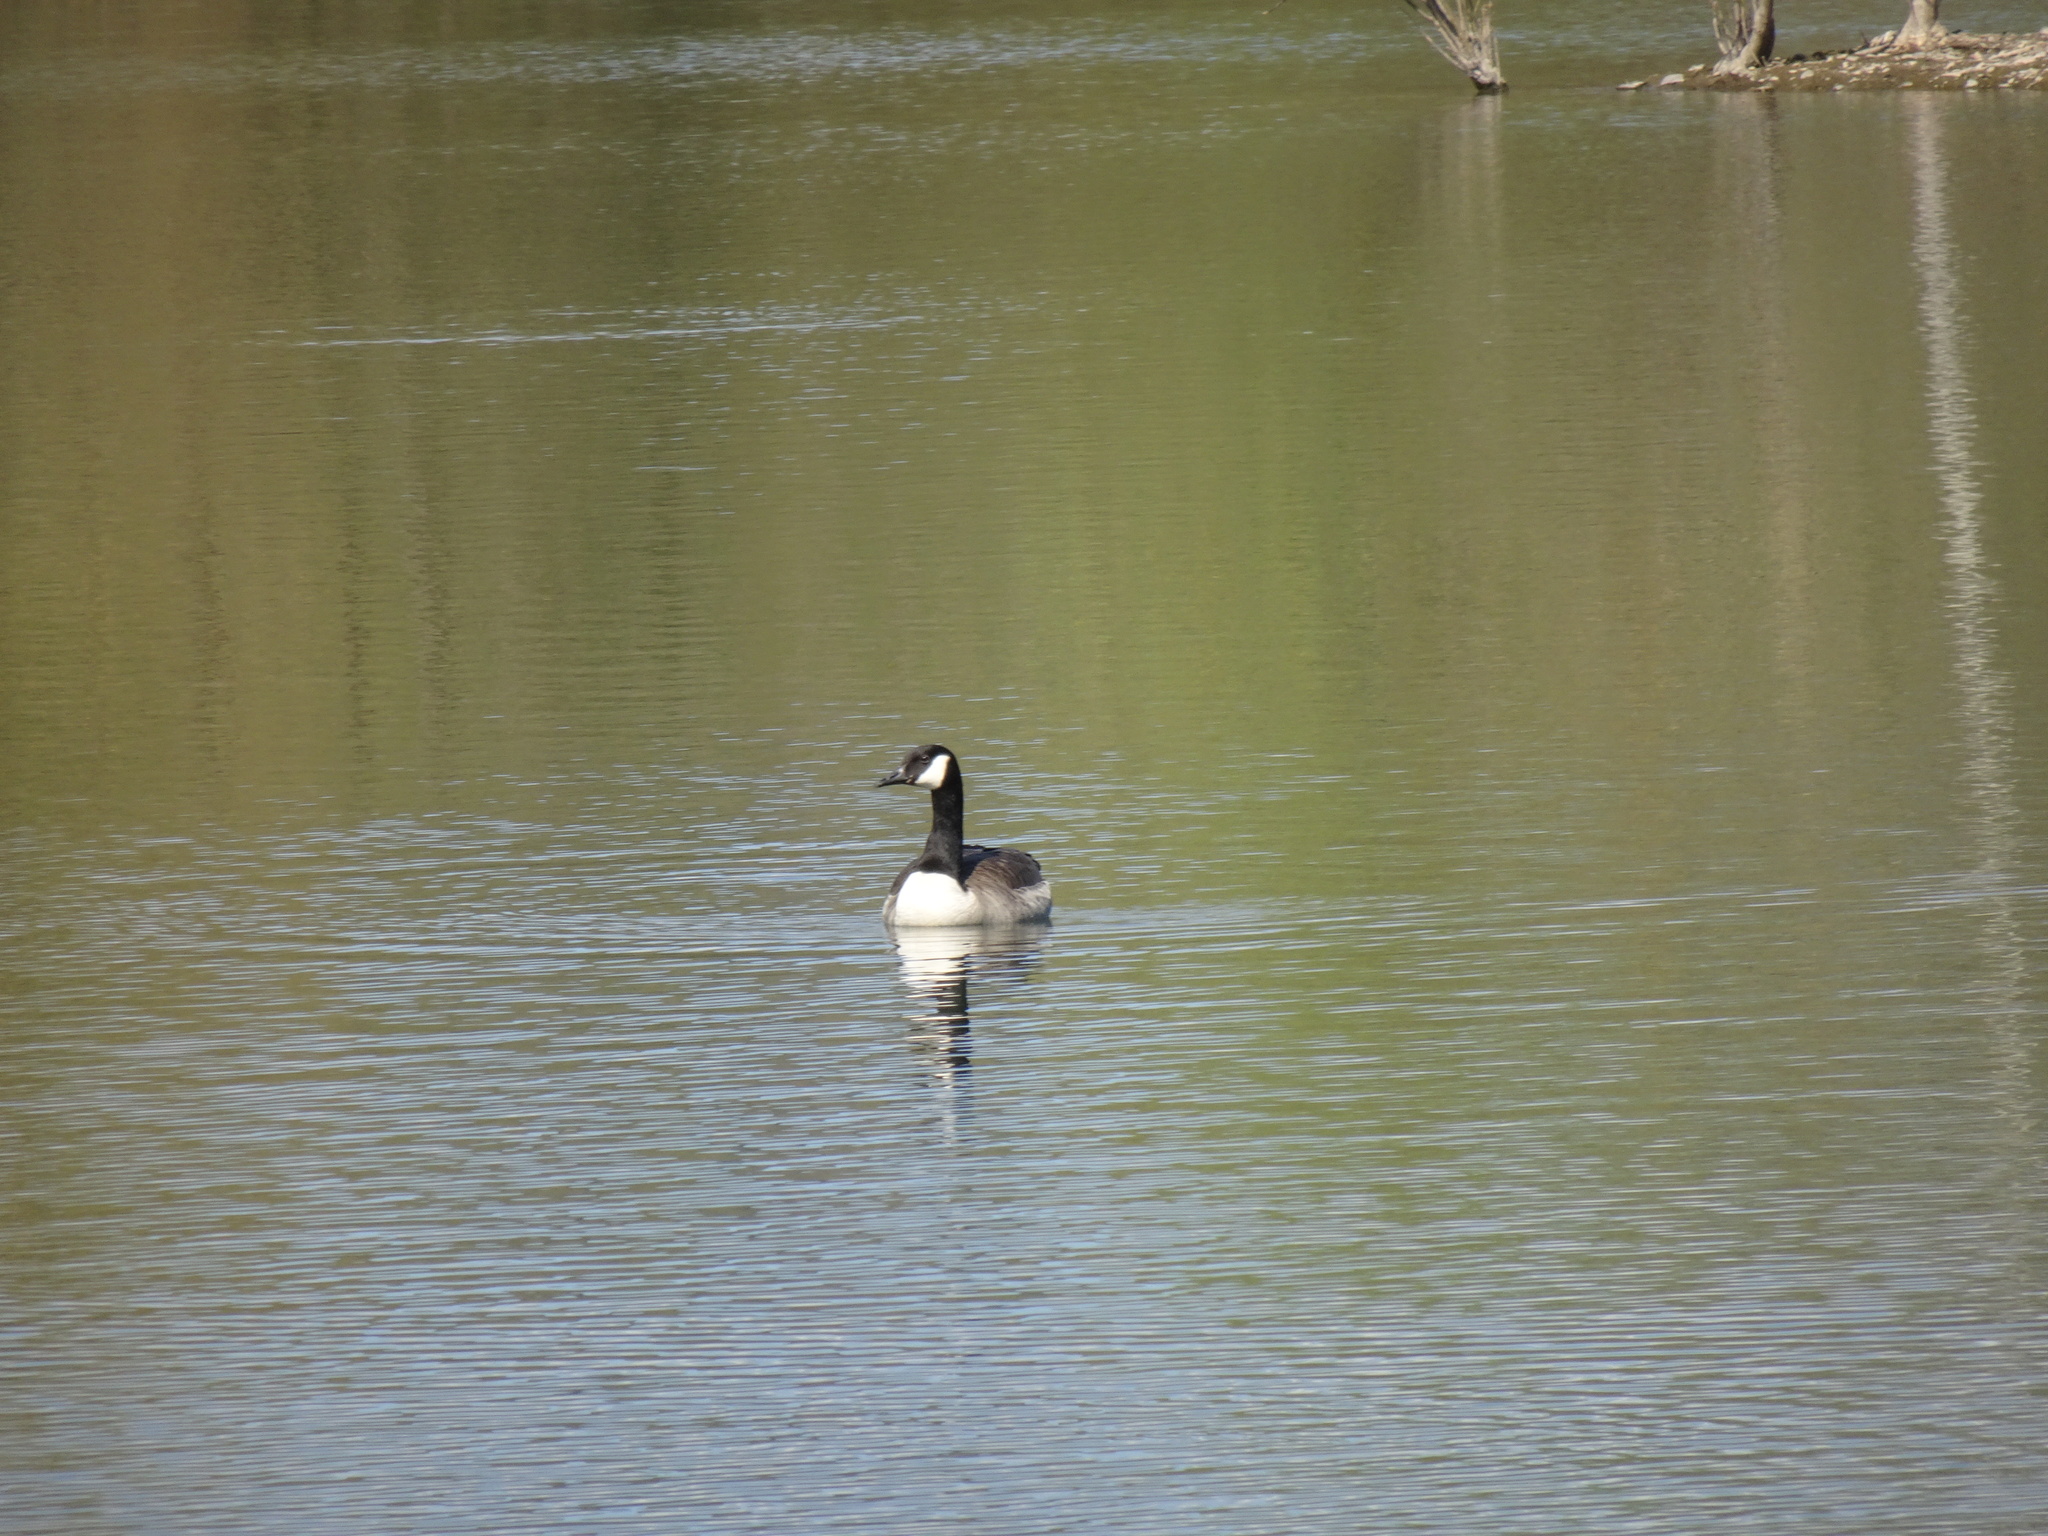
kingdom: Animalia
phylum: Chordata
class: Aves
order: Anseriformes
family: Anatidae
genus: Branta
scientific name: Branta canadensis
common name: Canada goose
